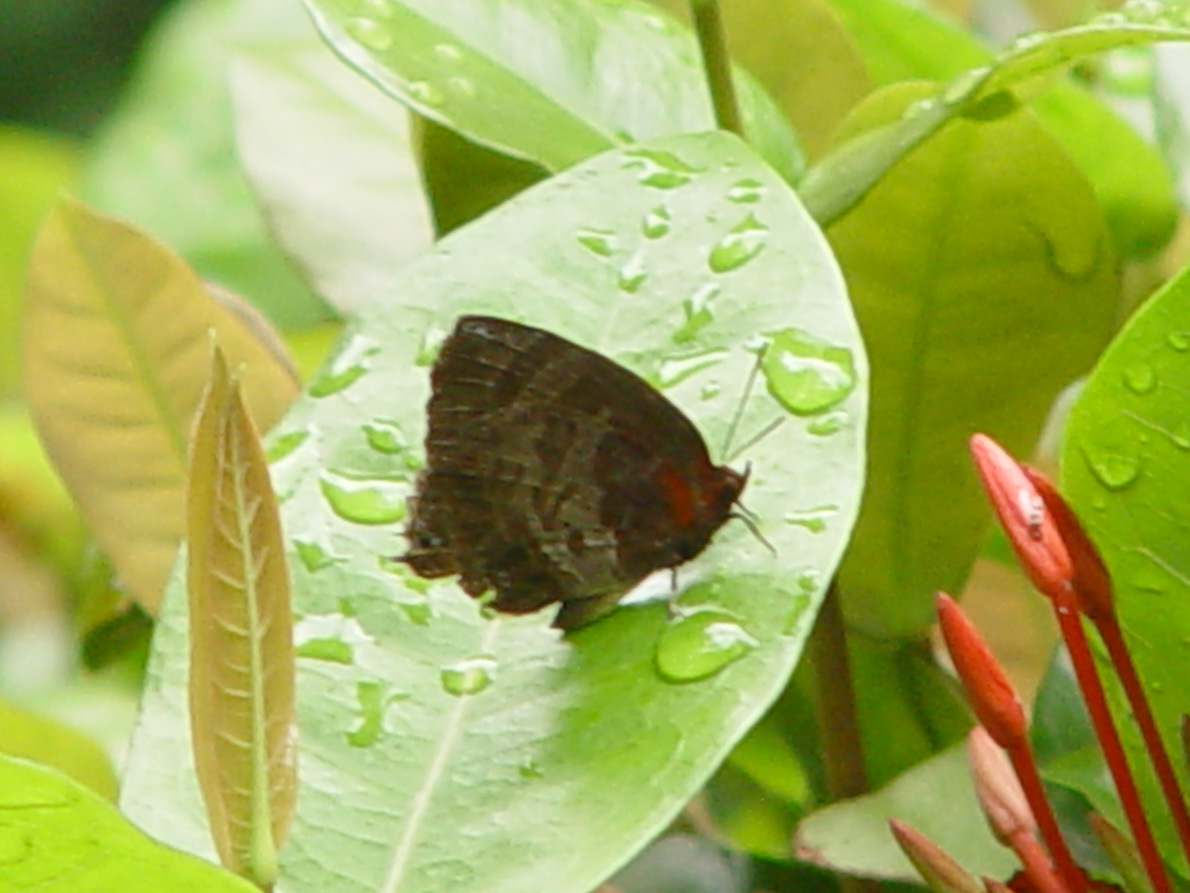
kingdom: Animalia
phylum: Arthropoda
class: Insecta
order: Lepidoptera
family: Lycaenidae
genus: Flos
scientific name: Flos apidanus
